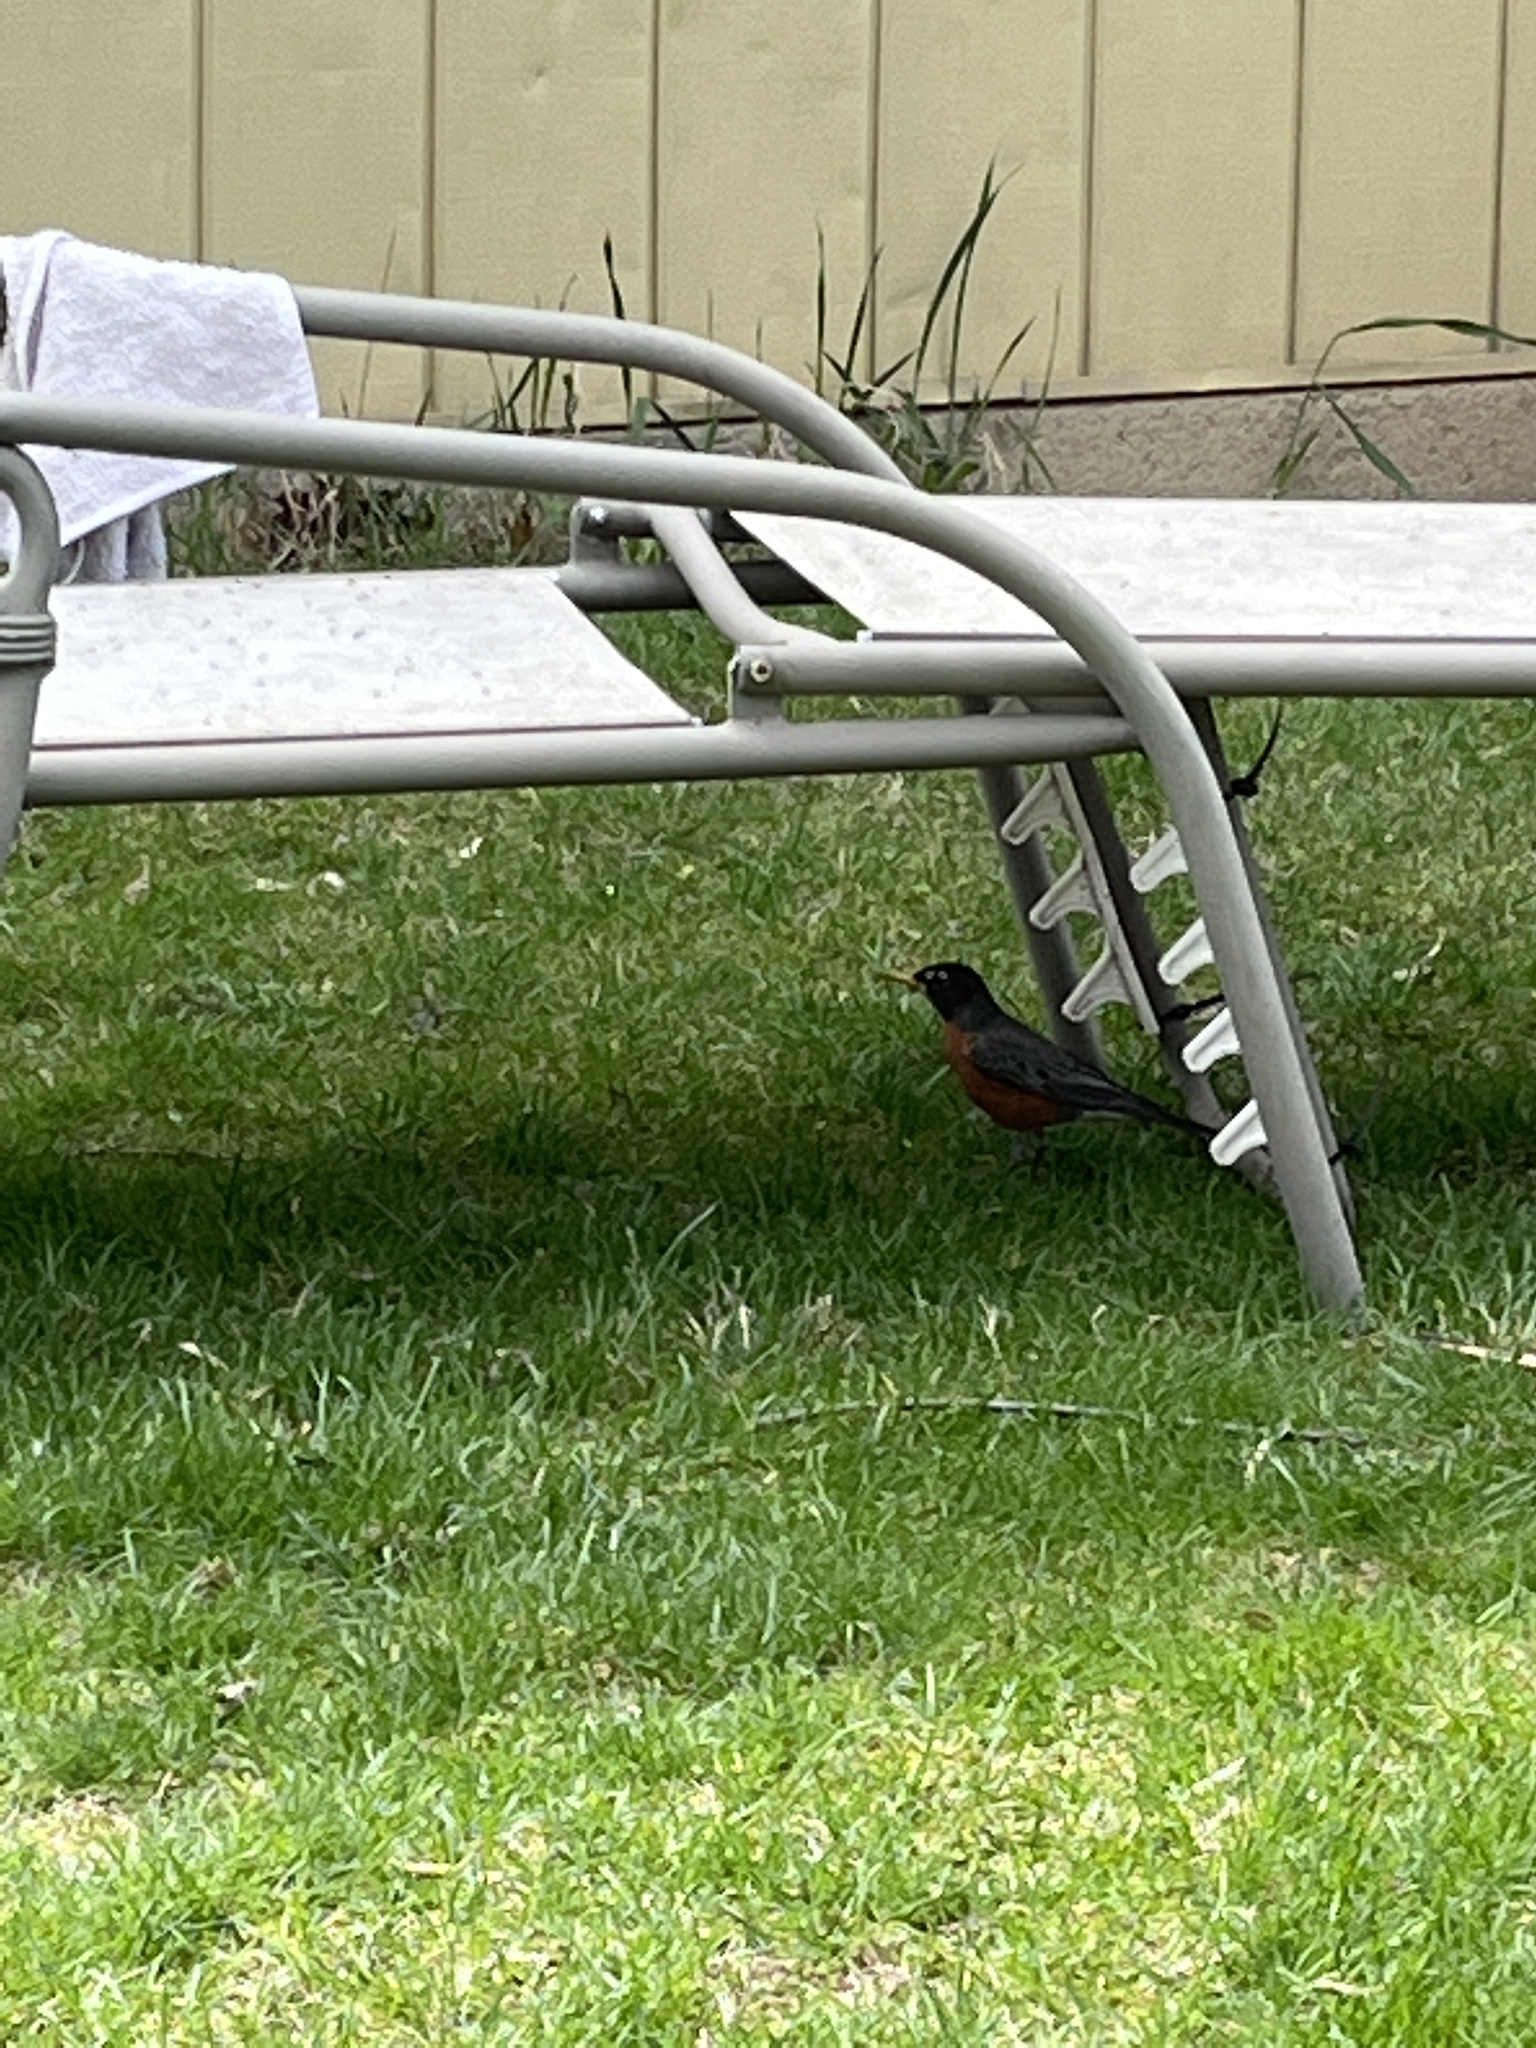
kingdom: Animalia
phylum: Chordata
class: Aves
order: Passeriformes
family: Turdidae
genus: Turdus
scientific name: Turdus migratorius
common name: American robin
